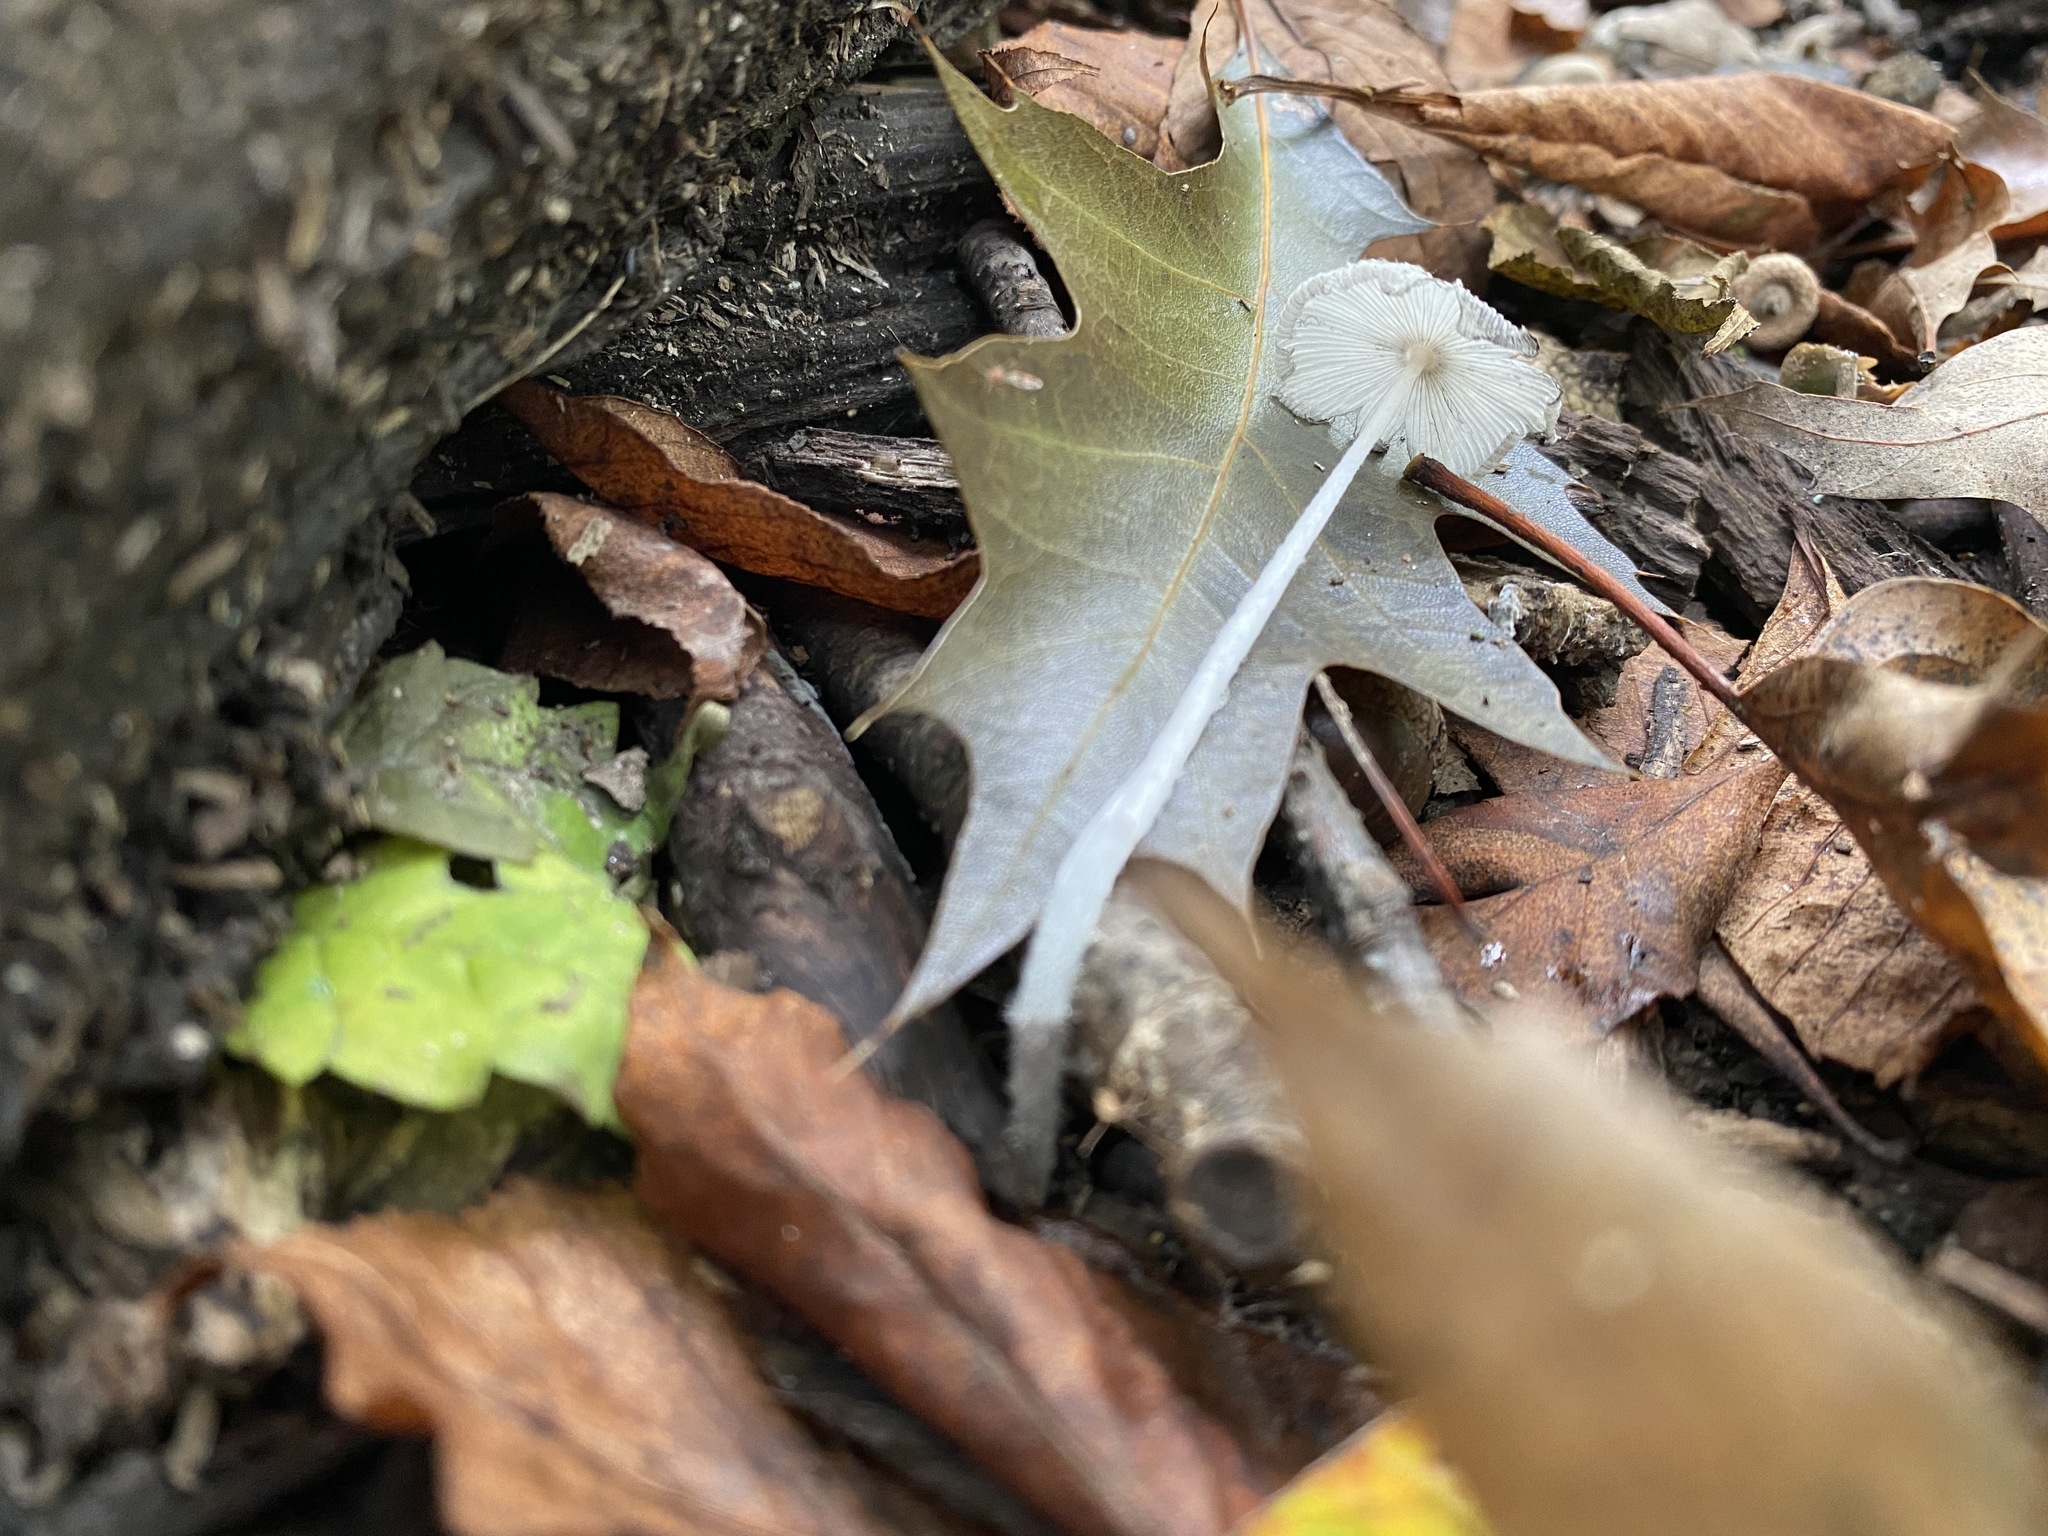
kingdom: Fungi
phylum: Basidiomycota
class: Agaricomycetes
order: Agaricales
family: Psathyrellaceae
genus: Parasola
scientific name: Parasola plicatilis
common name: Pleated inkcap
